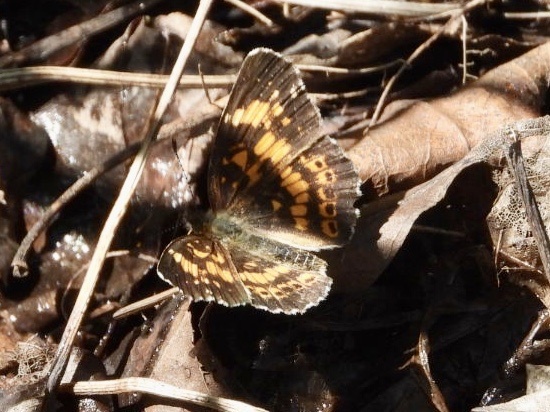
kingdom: Animalia
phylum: Arthropoda
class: Insecta
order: Lepidoptera
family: Nymphalidae
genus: Chlosyne
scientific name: Chlosyne nycteis
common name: Silvery checkerspot
